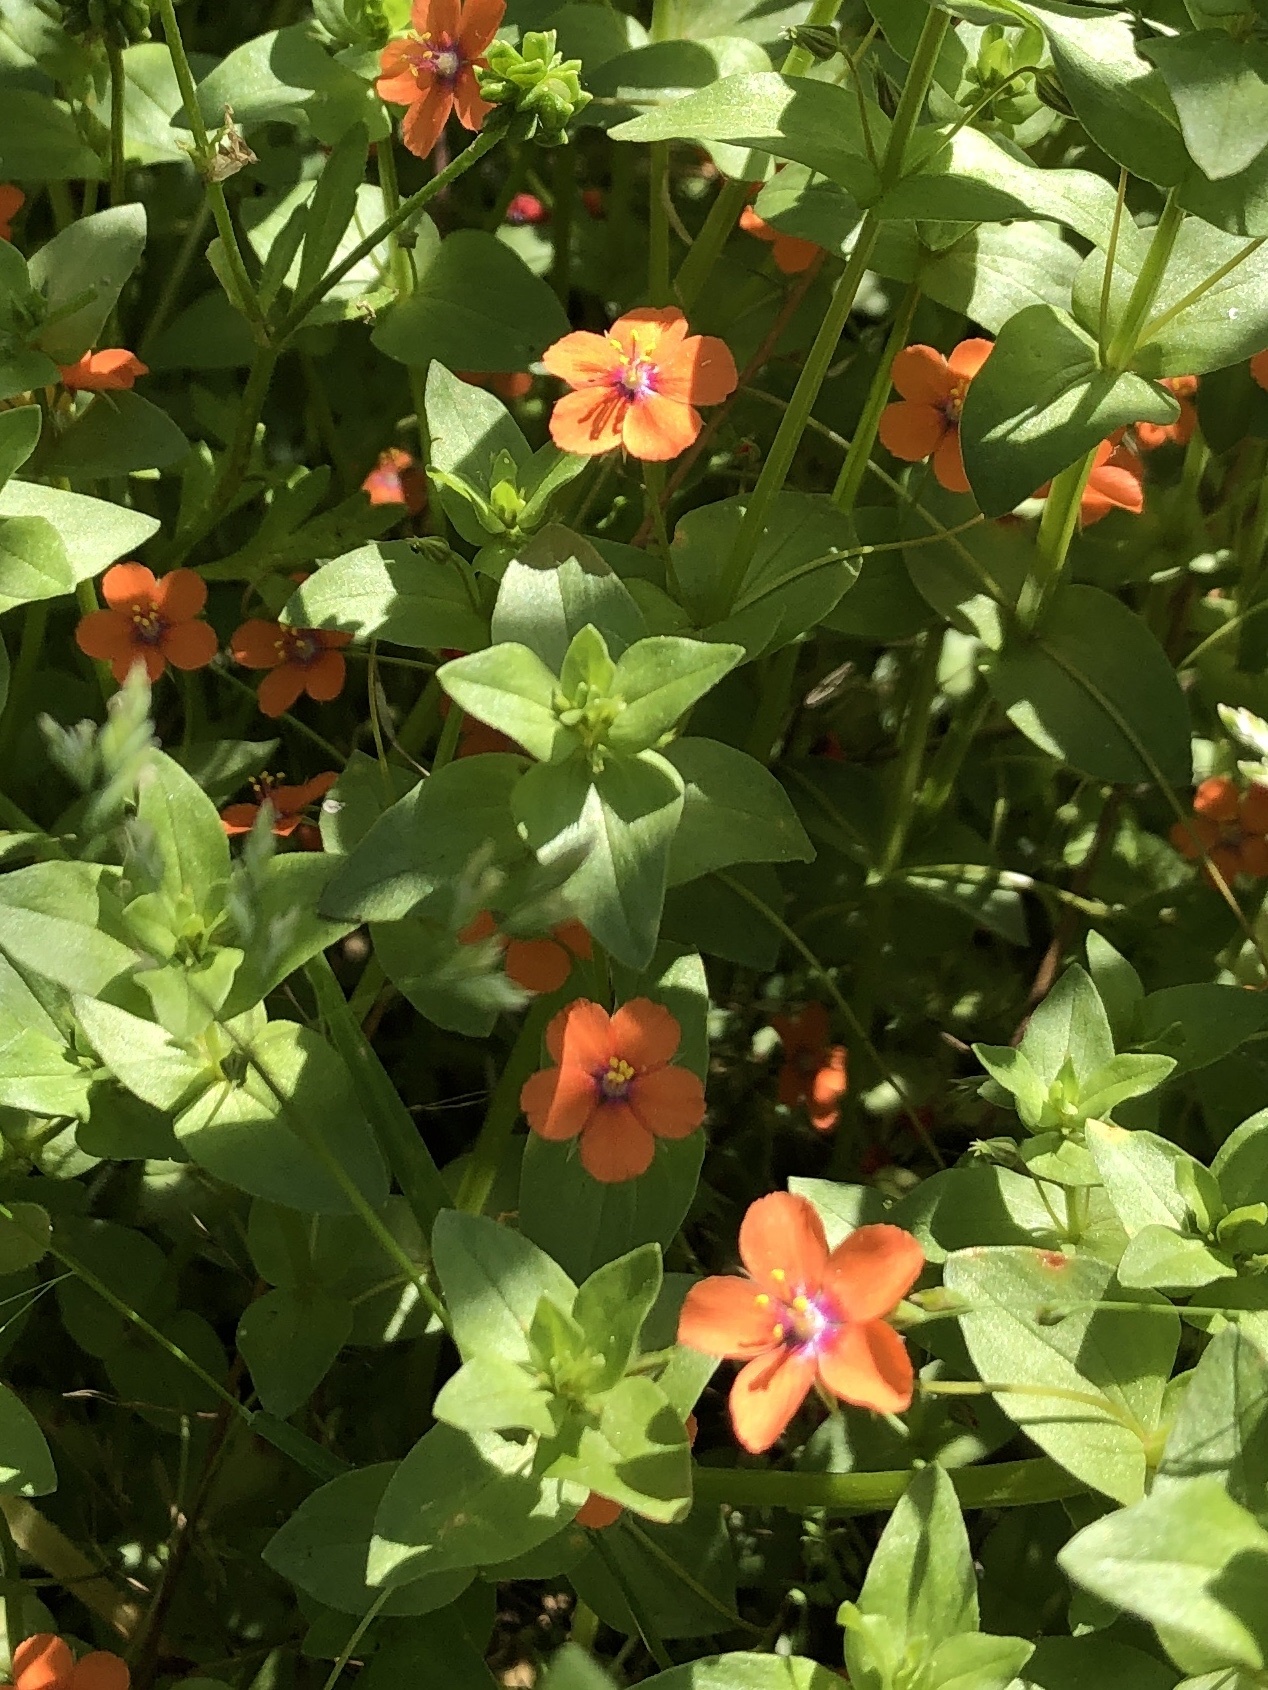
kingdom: Plantae
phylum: Tracheophyta
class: Magnoliopsida
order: Ericales
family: Primulaceae
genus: Lysimachia
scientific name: Lysimachia arvensis
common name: Scarlet pimpernel
